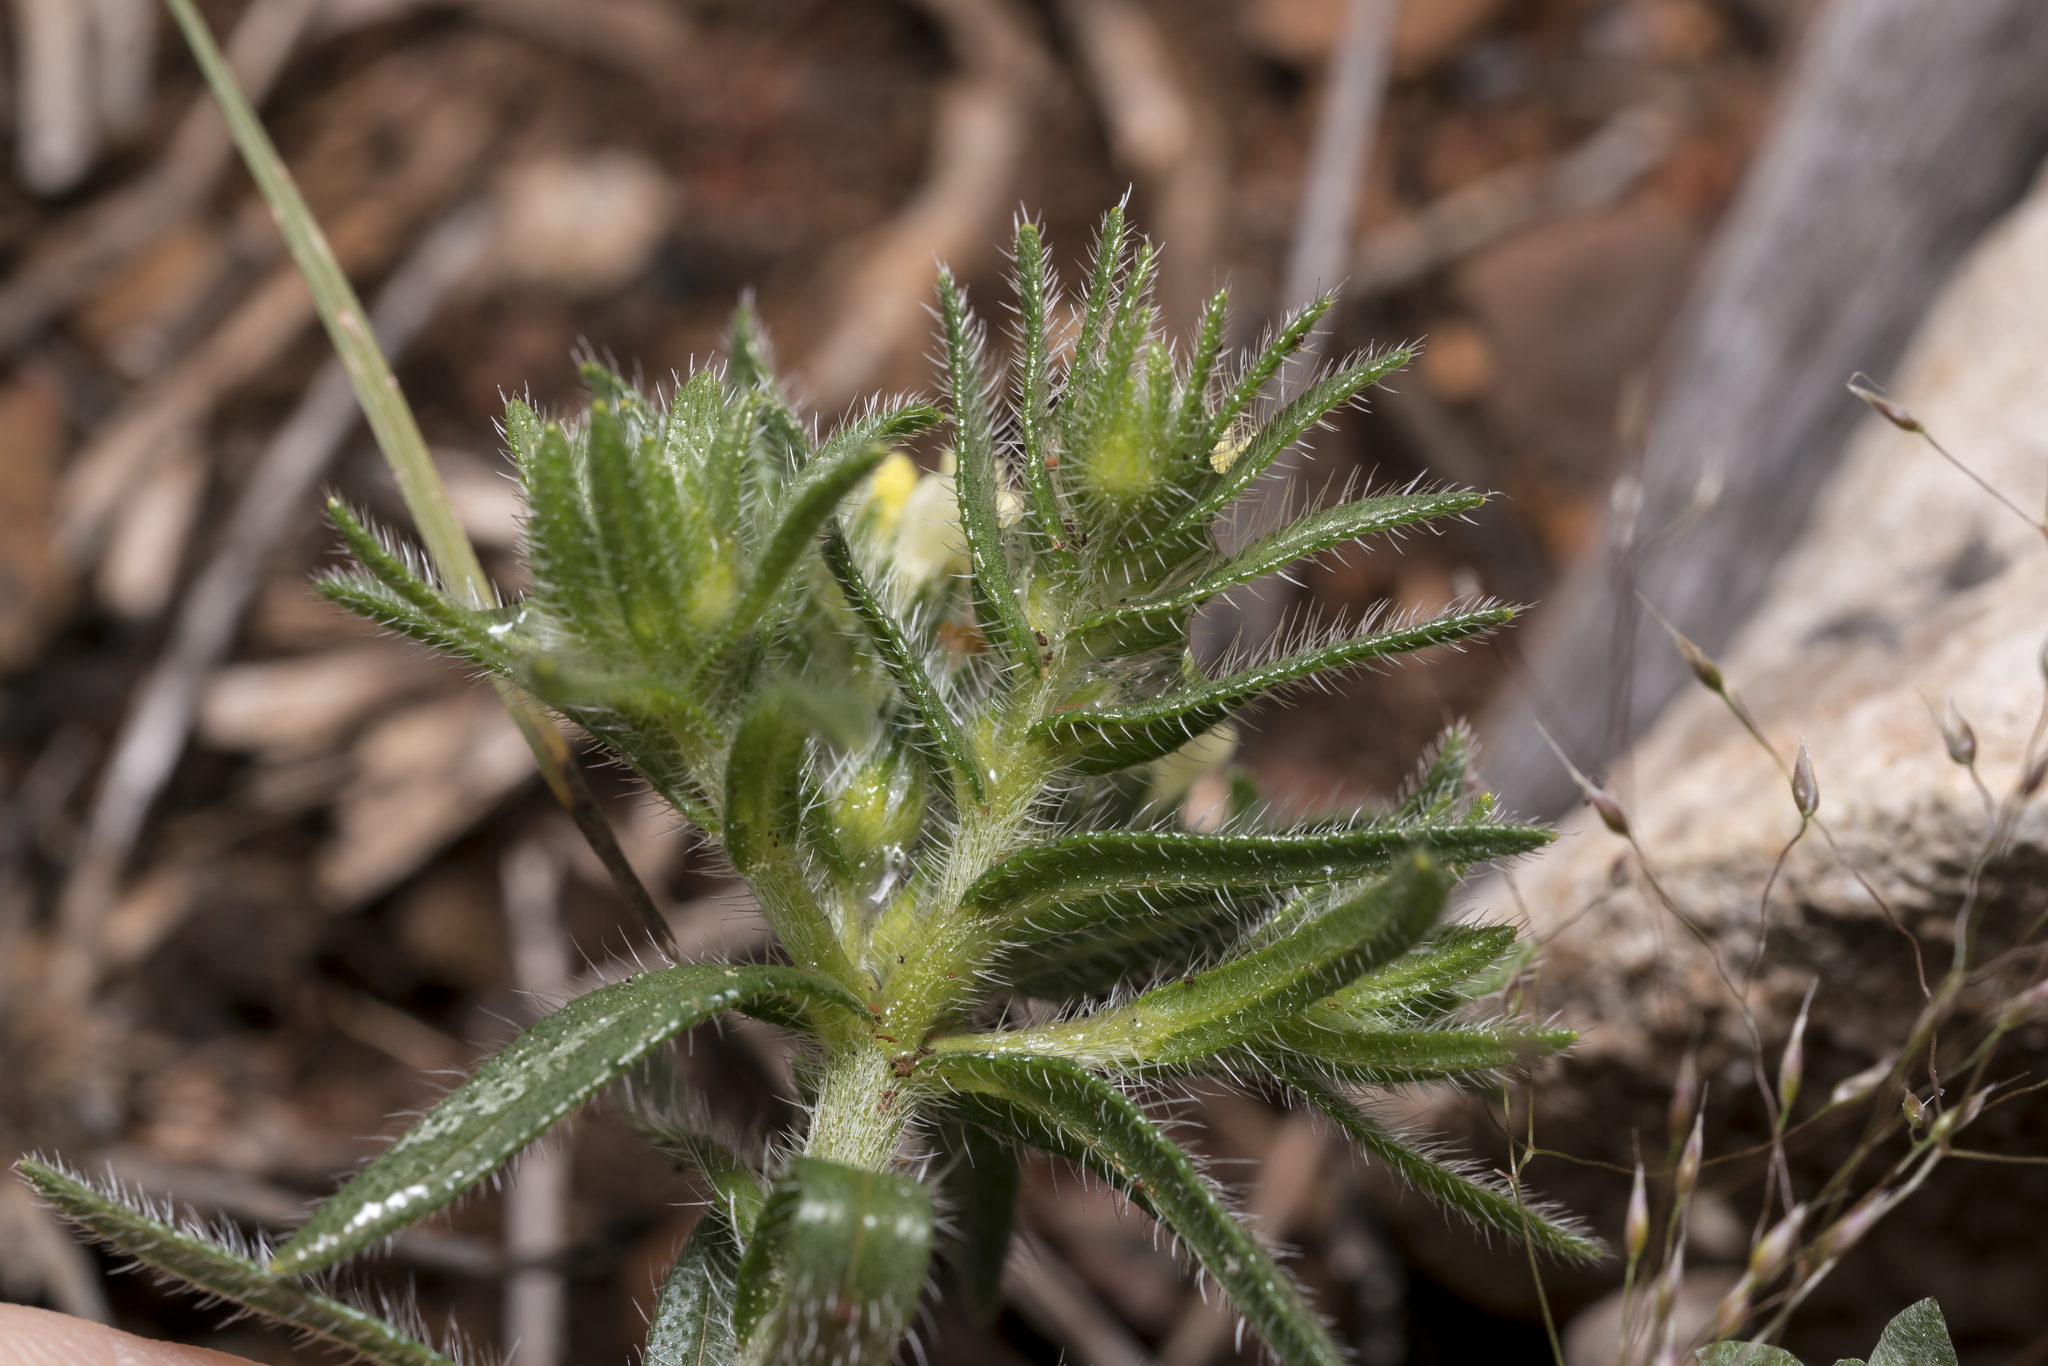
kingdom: Plantae
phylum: Tracheophyta
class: Magnoliopsida
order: Boraginales
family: Boraginaceae
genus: Neatostema
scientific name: Neatostema apulum
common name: Hairy sheepweed
